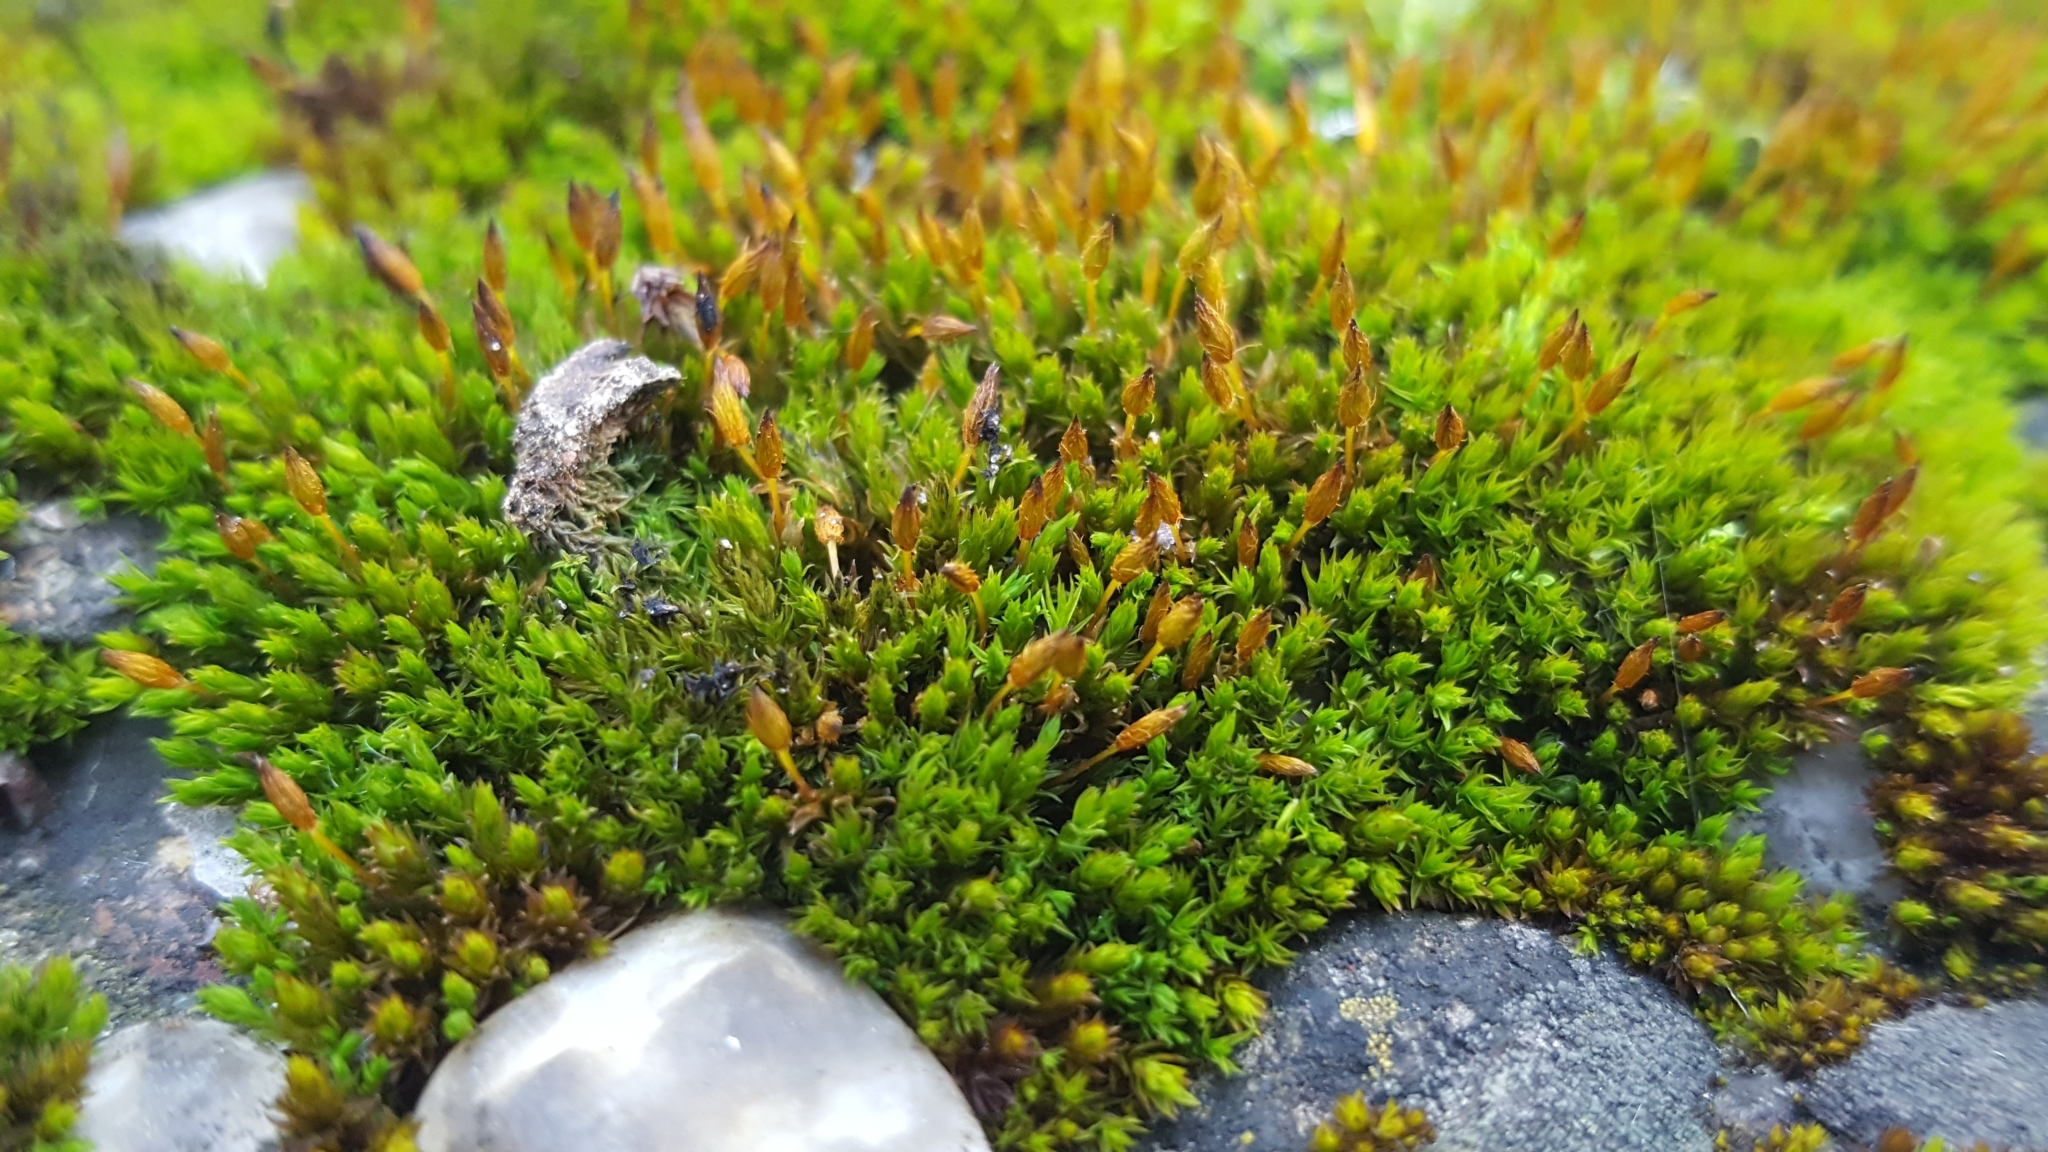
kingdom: Plantae
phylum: Bryophyta
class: Bryopsida
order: Orthotrichales
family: Orthotrichaceae
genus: Orthotrichum
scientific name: Orthotrichum anomalum
